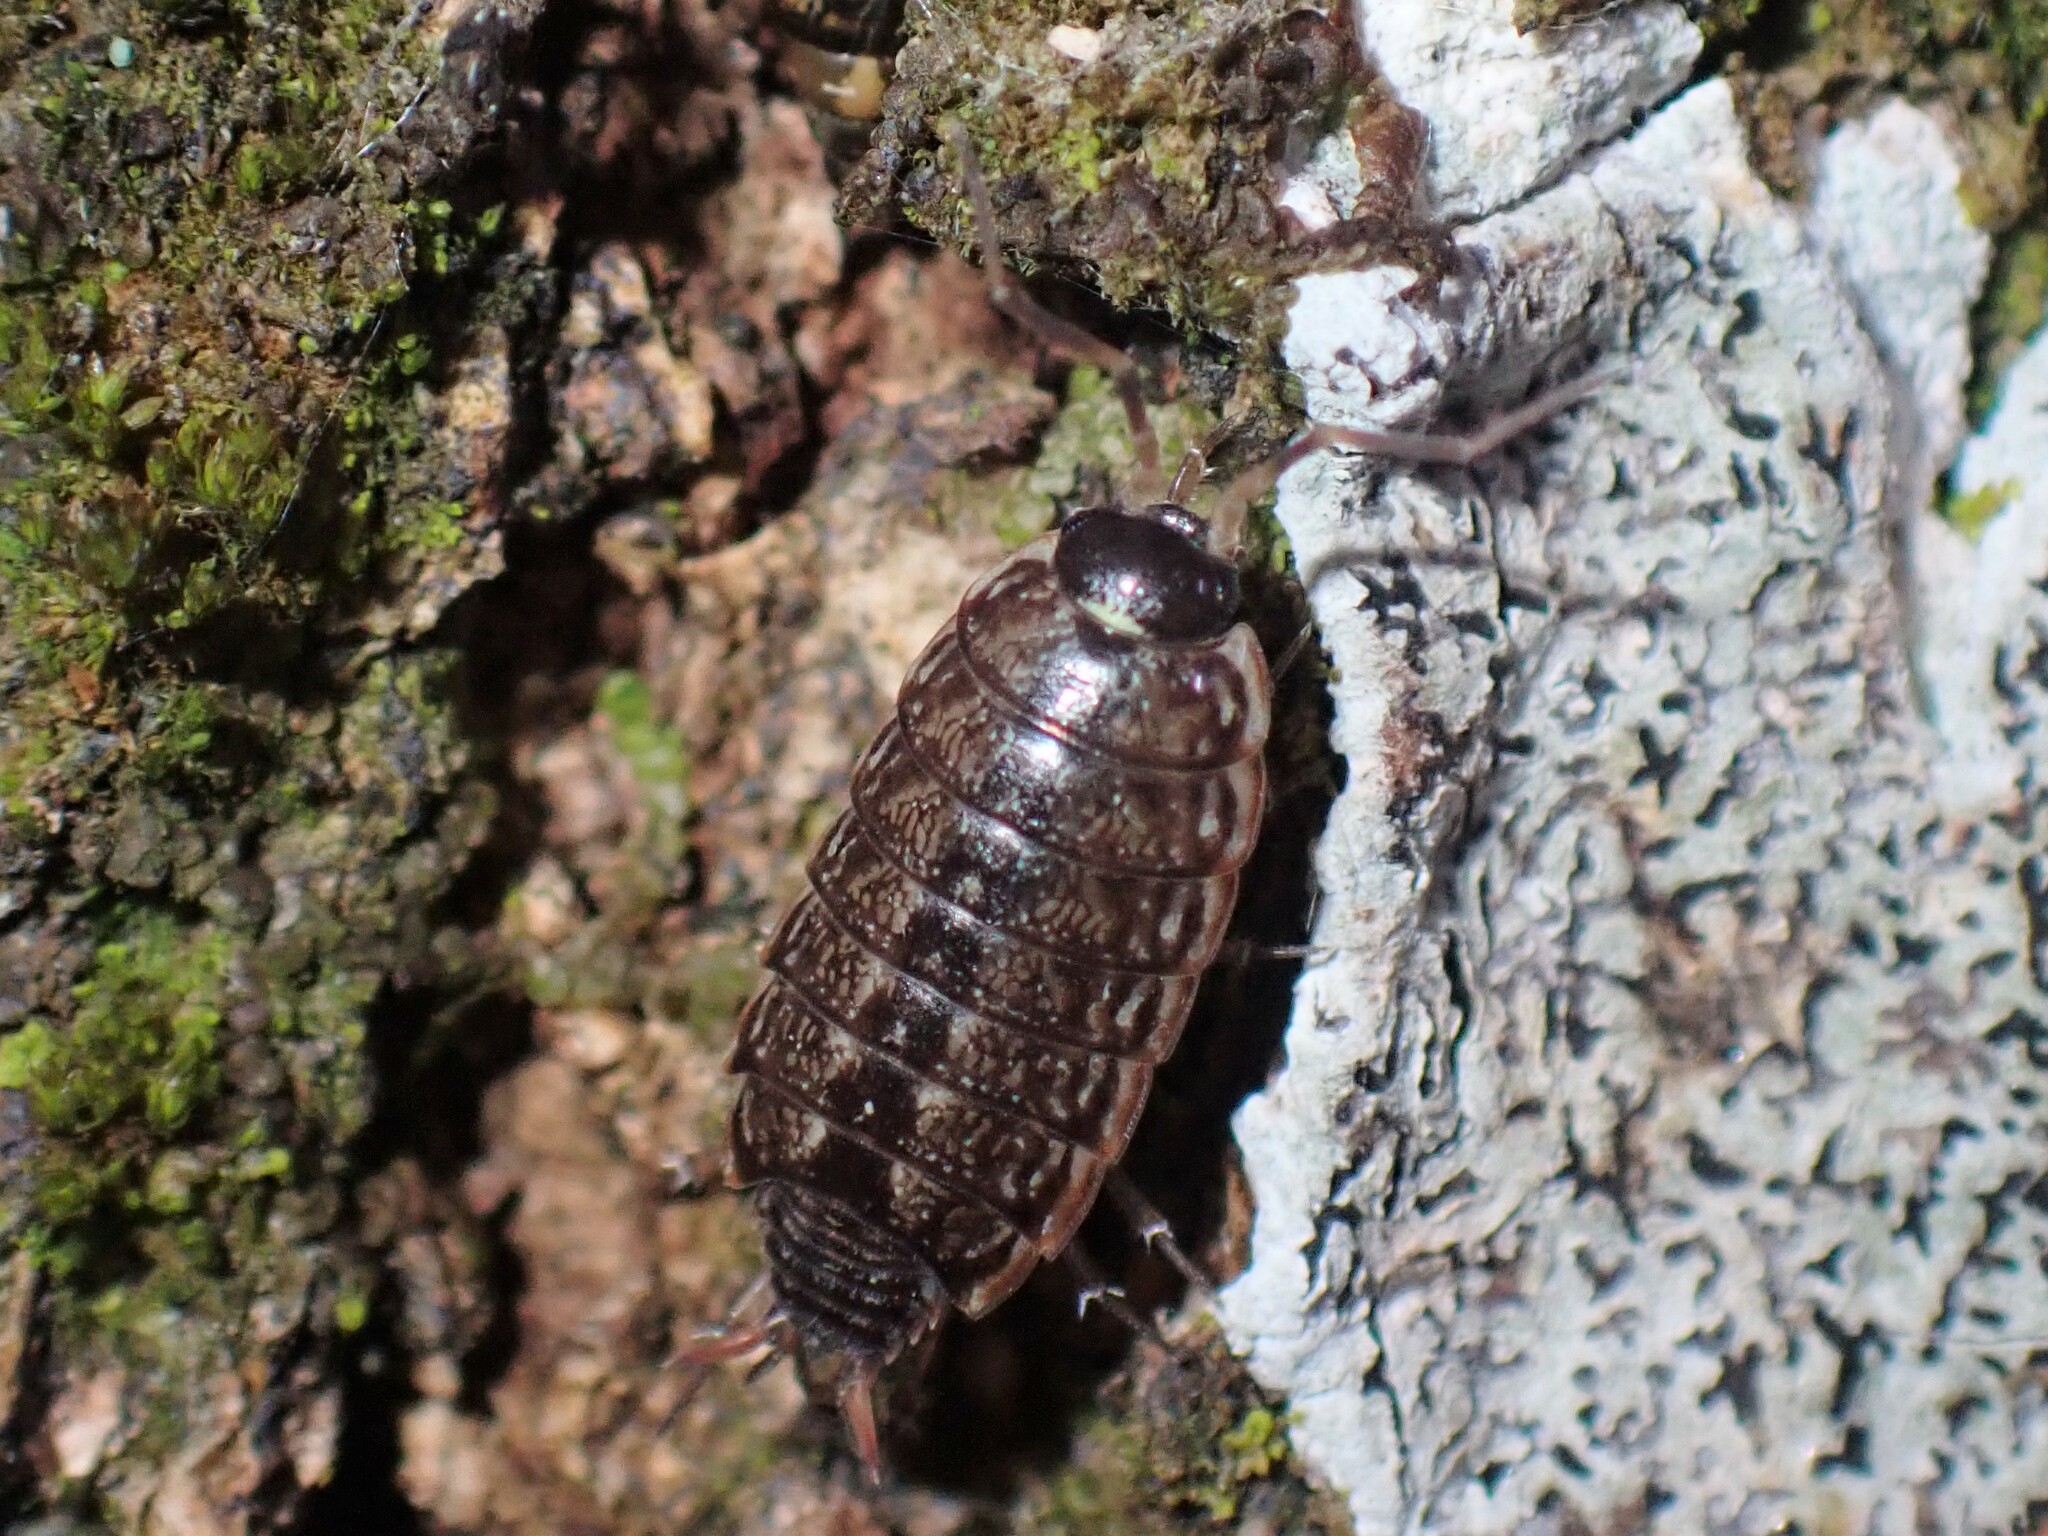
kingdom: Animalia
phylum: Arthropoda
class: Malacostraca
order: Isopoda
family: Philosciidae
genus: Philoscia
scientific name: Philoscia muscorum
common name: Common striped woodlouse
